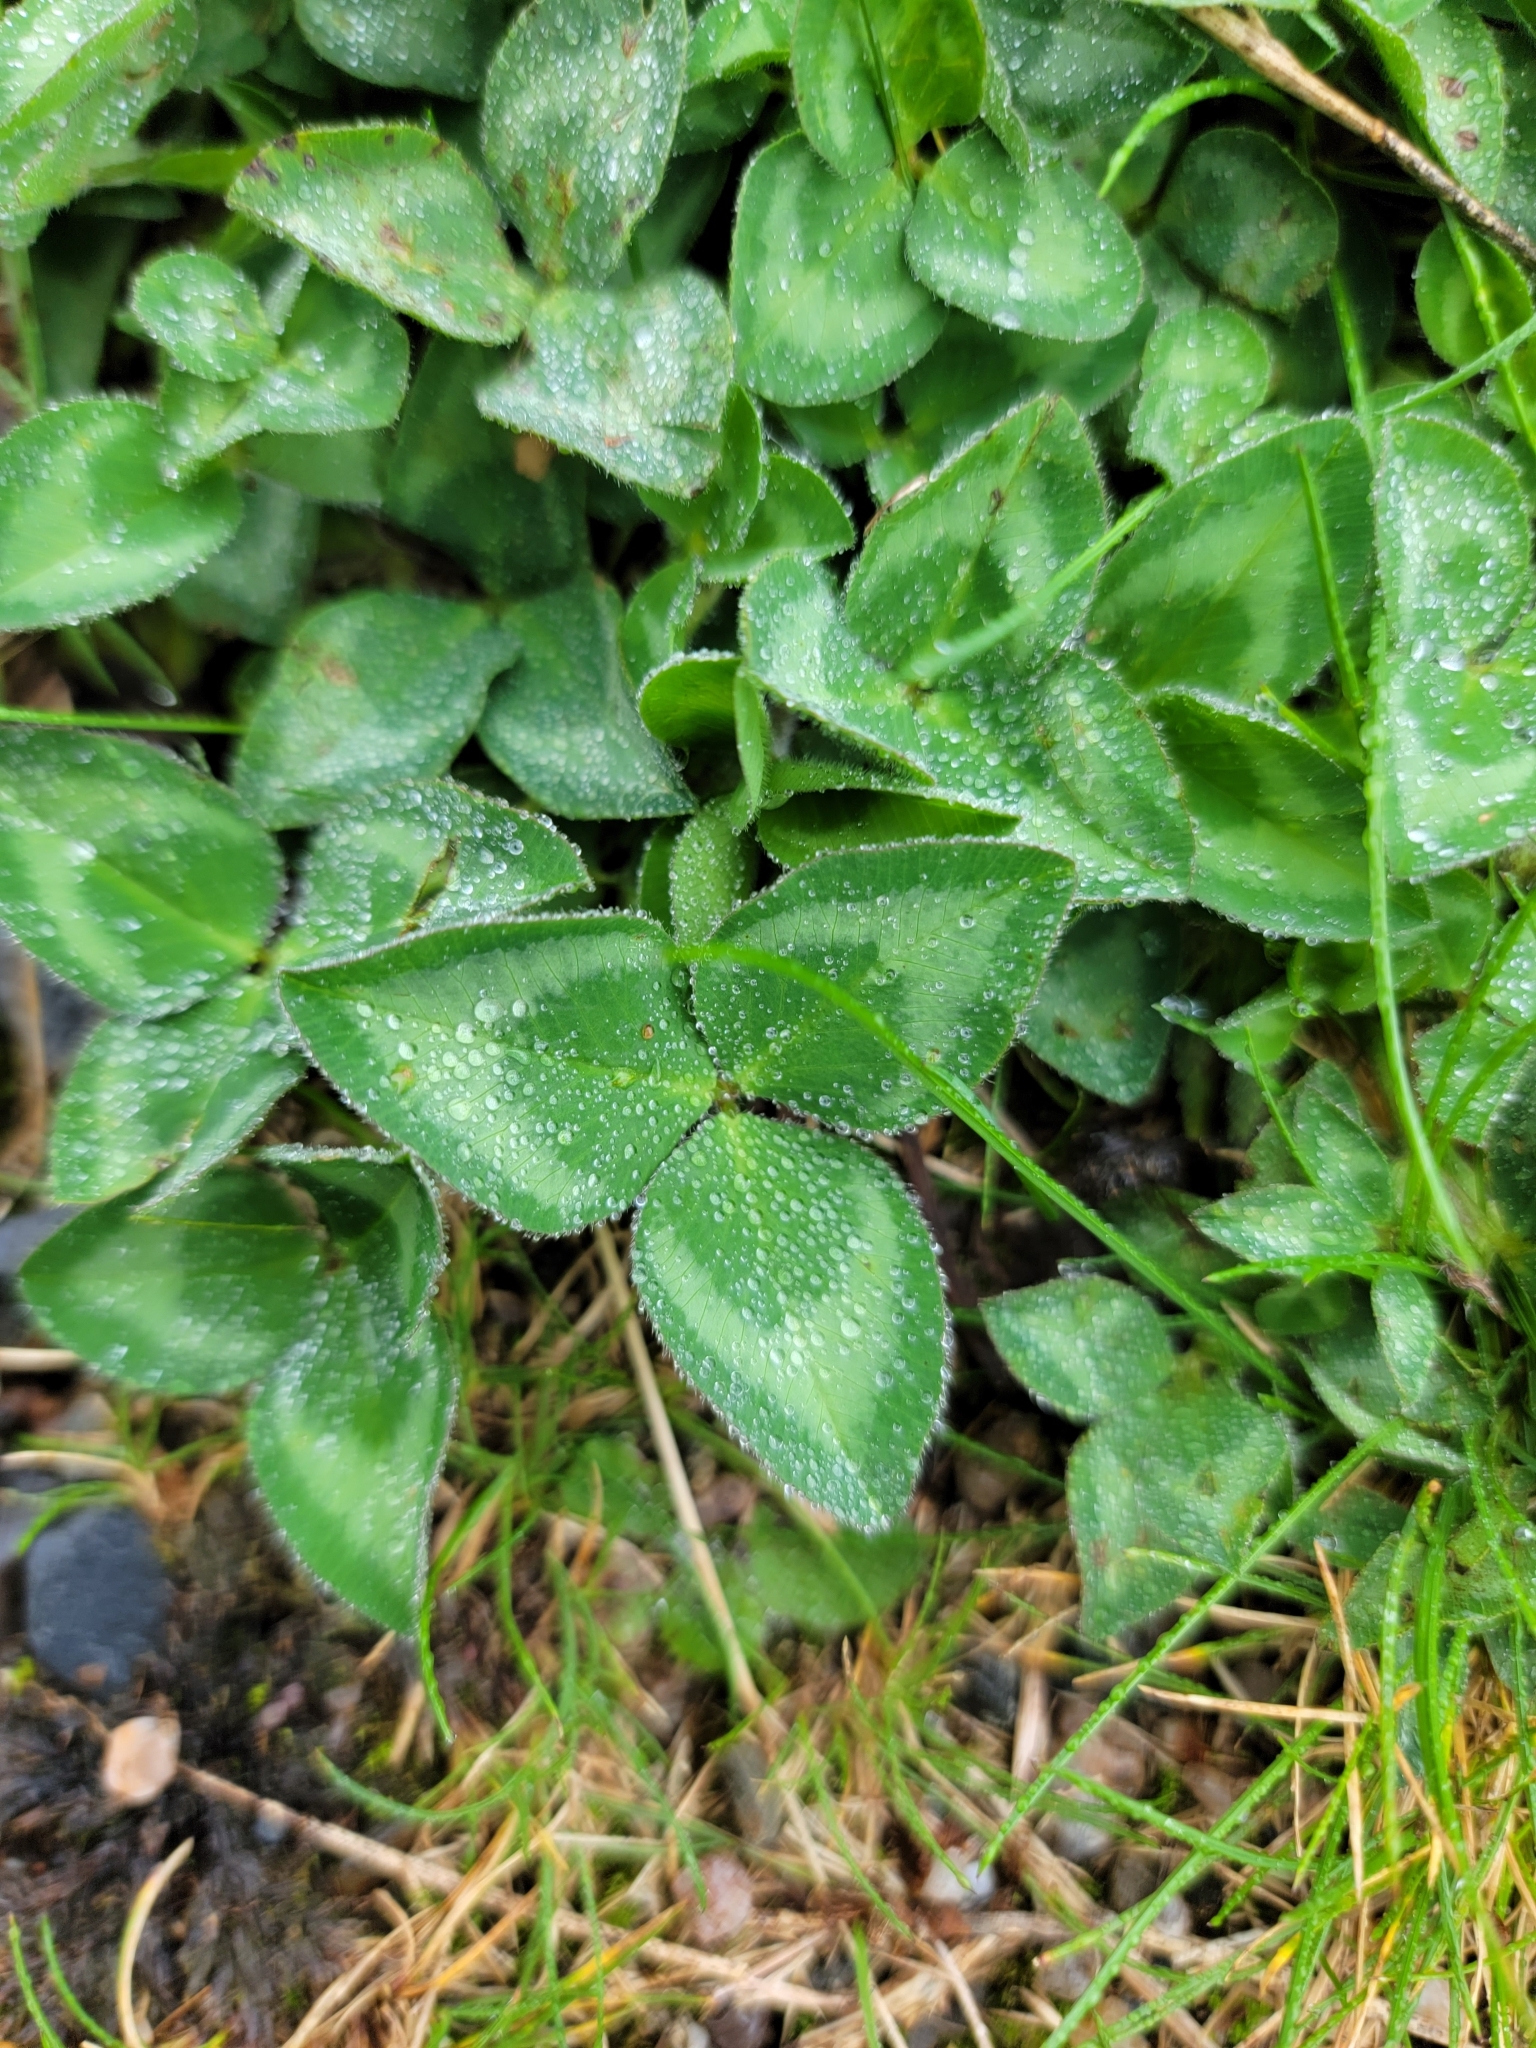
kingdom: Plantae
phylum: Tracheophyta
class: Magnoliopsida
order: Fabales
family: Fabaceae
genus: Trifolium
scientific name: Trifolium pratense
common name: Red clover
